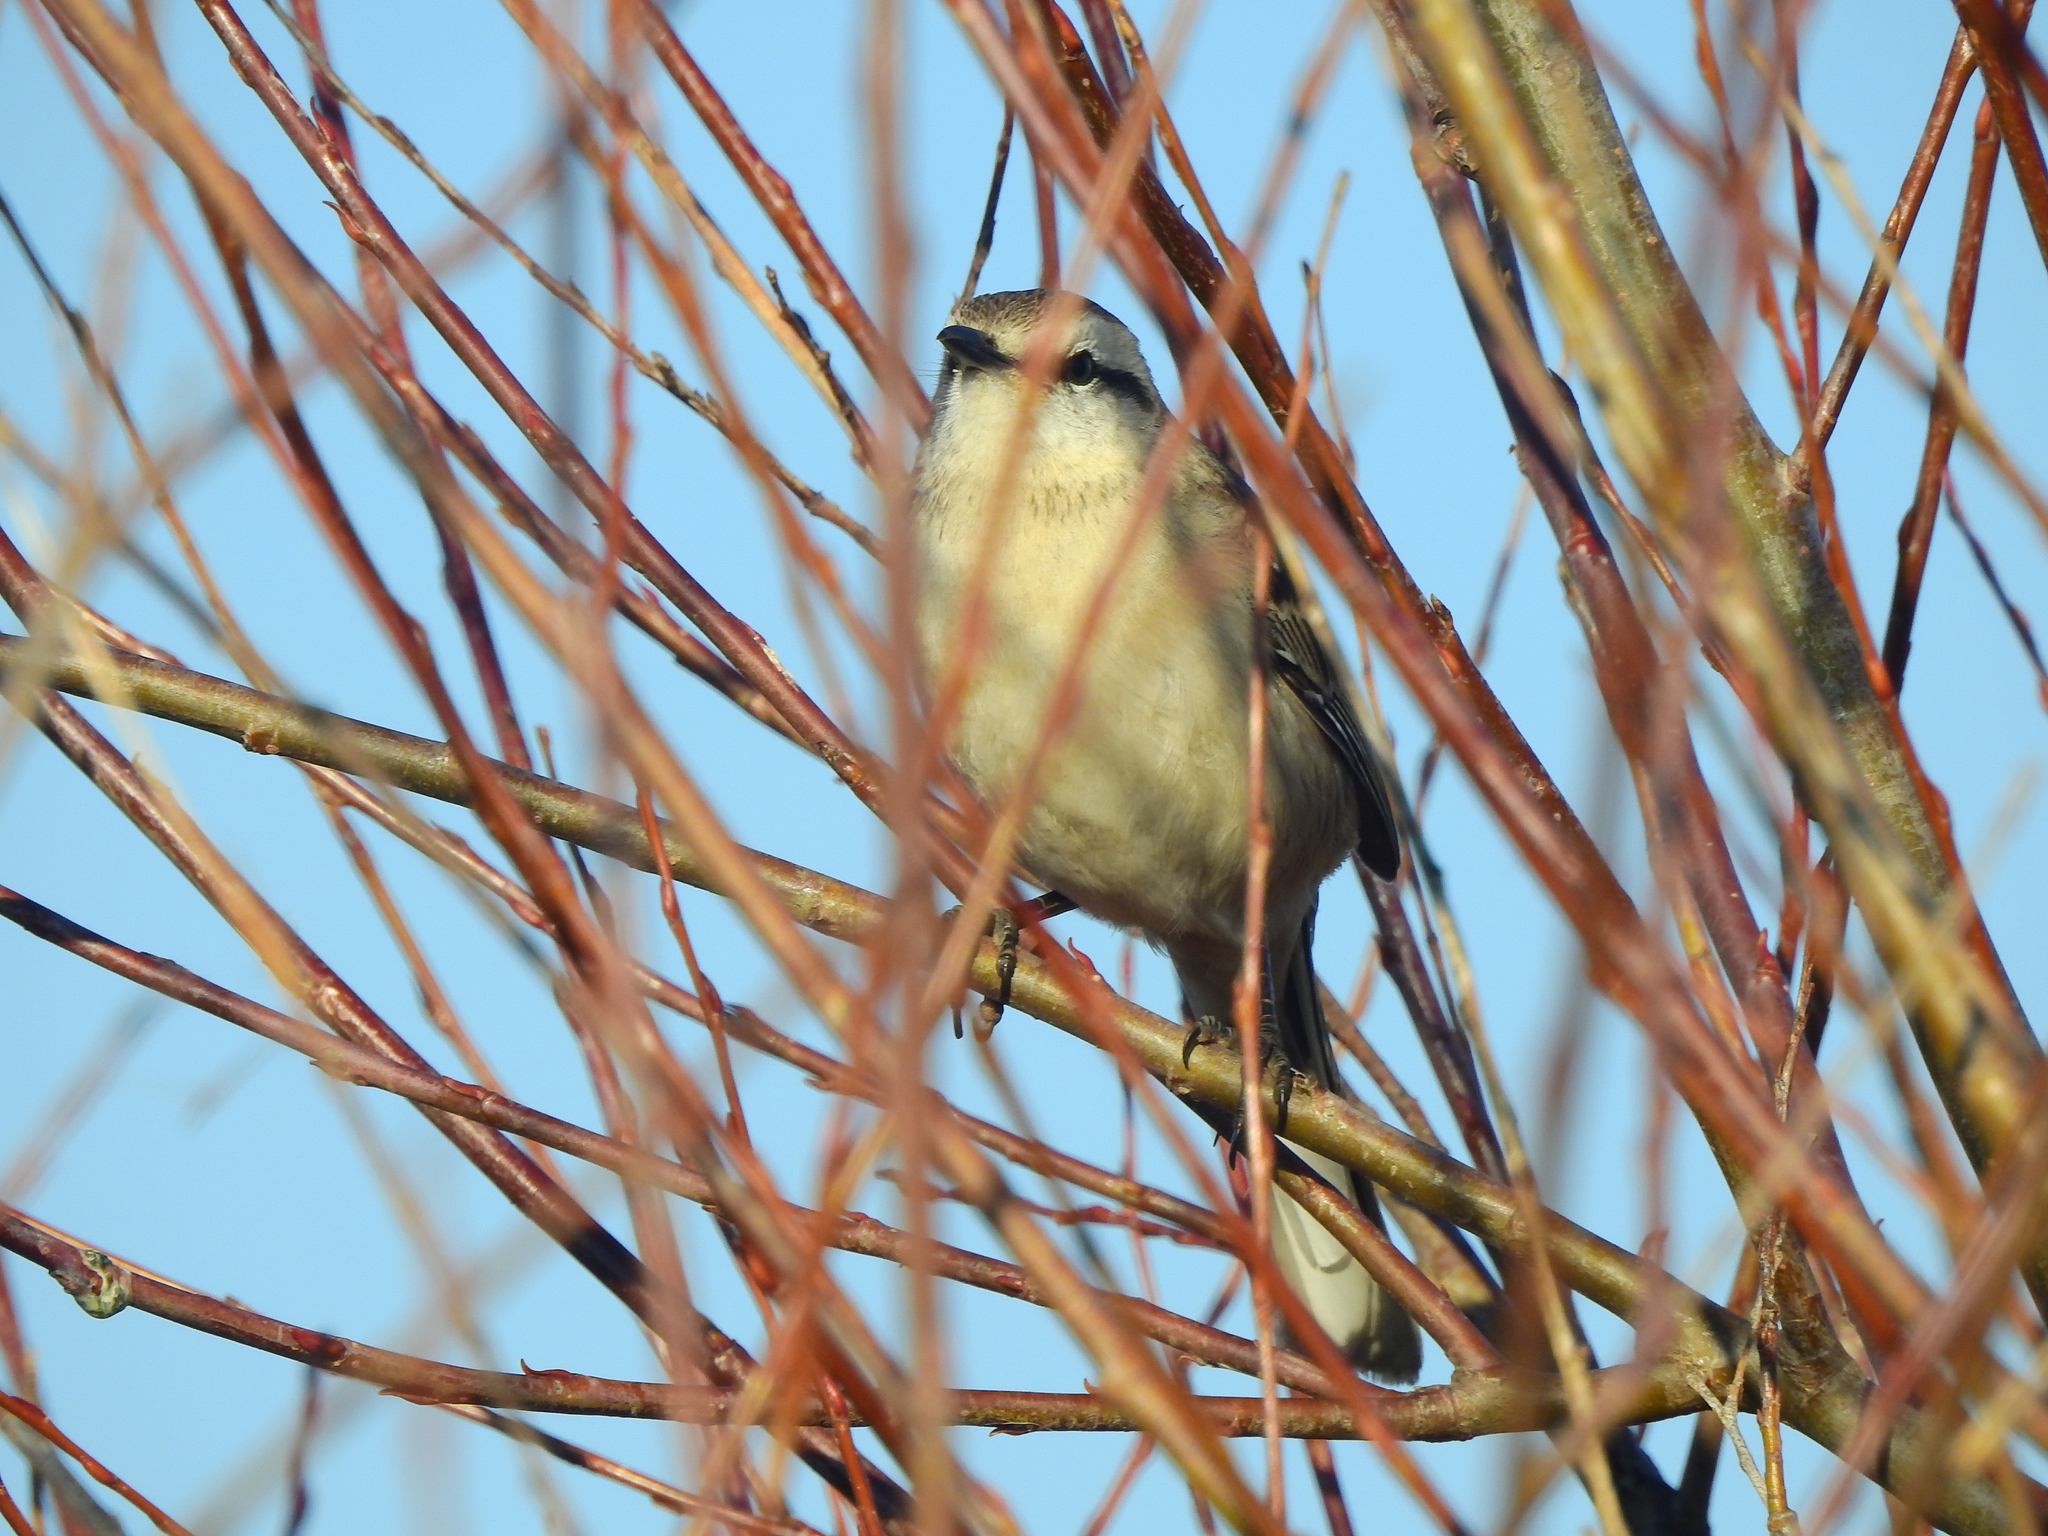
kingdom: Animalia
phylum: Chordata
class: Aves
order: Passeriformes
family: Mimidae
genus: Mimus
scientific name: Mimus saturninus
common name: Chalk-browed mockingbird
